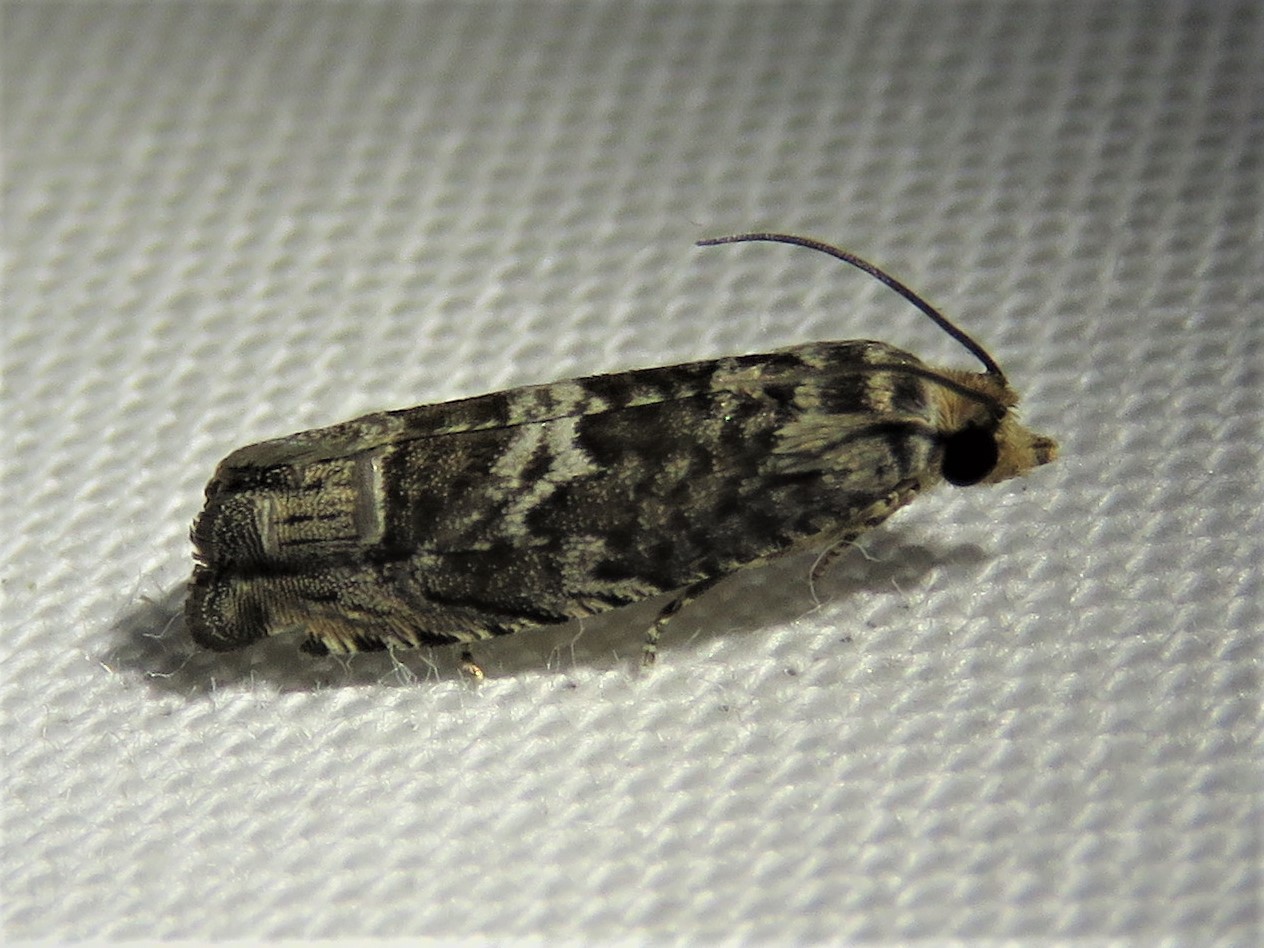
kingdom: Animalia
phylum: Arthropoda
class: Insecta
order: Lepidoptera
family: Tortricidae
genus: Cydia
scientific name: Cydia membrosa
